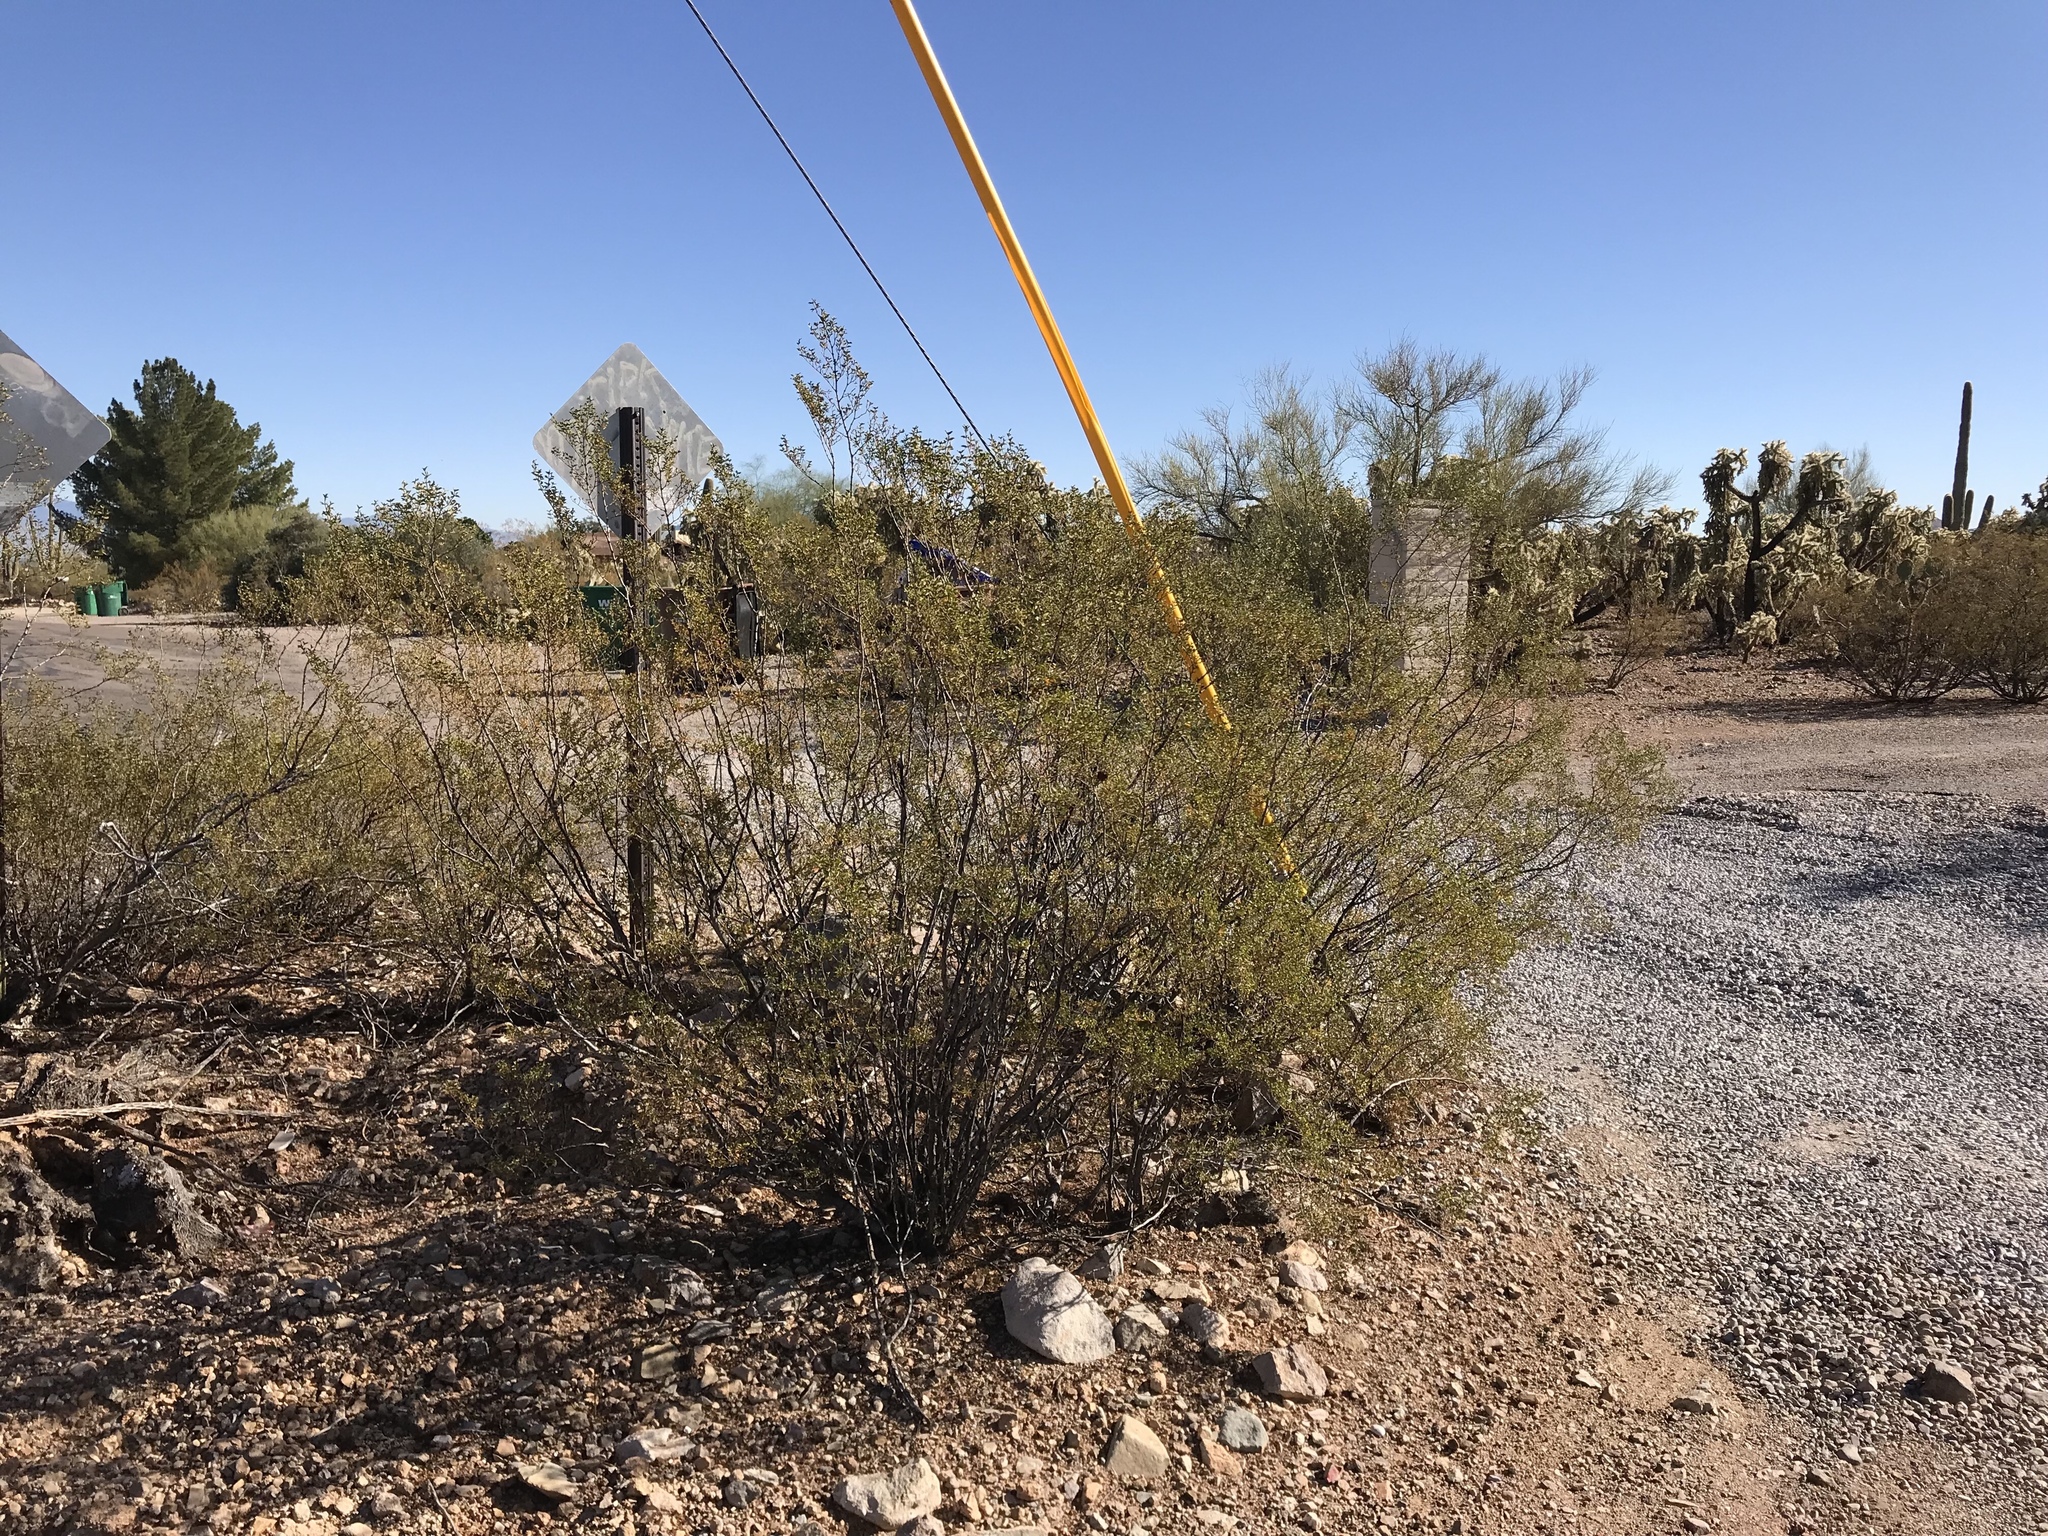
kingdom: Plantae
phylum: Tracheophyta
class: Magnoliopsida
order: Zygophyllales
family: Zygophyllaceae
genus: Larrea
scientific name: Larrea tridentata
